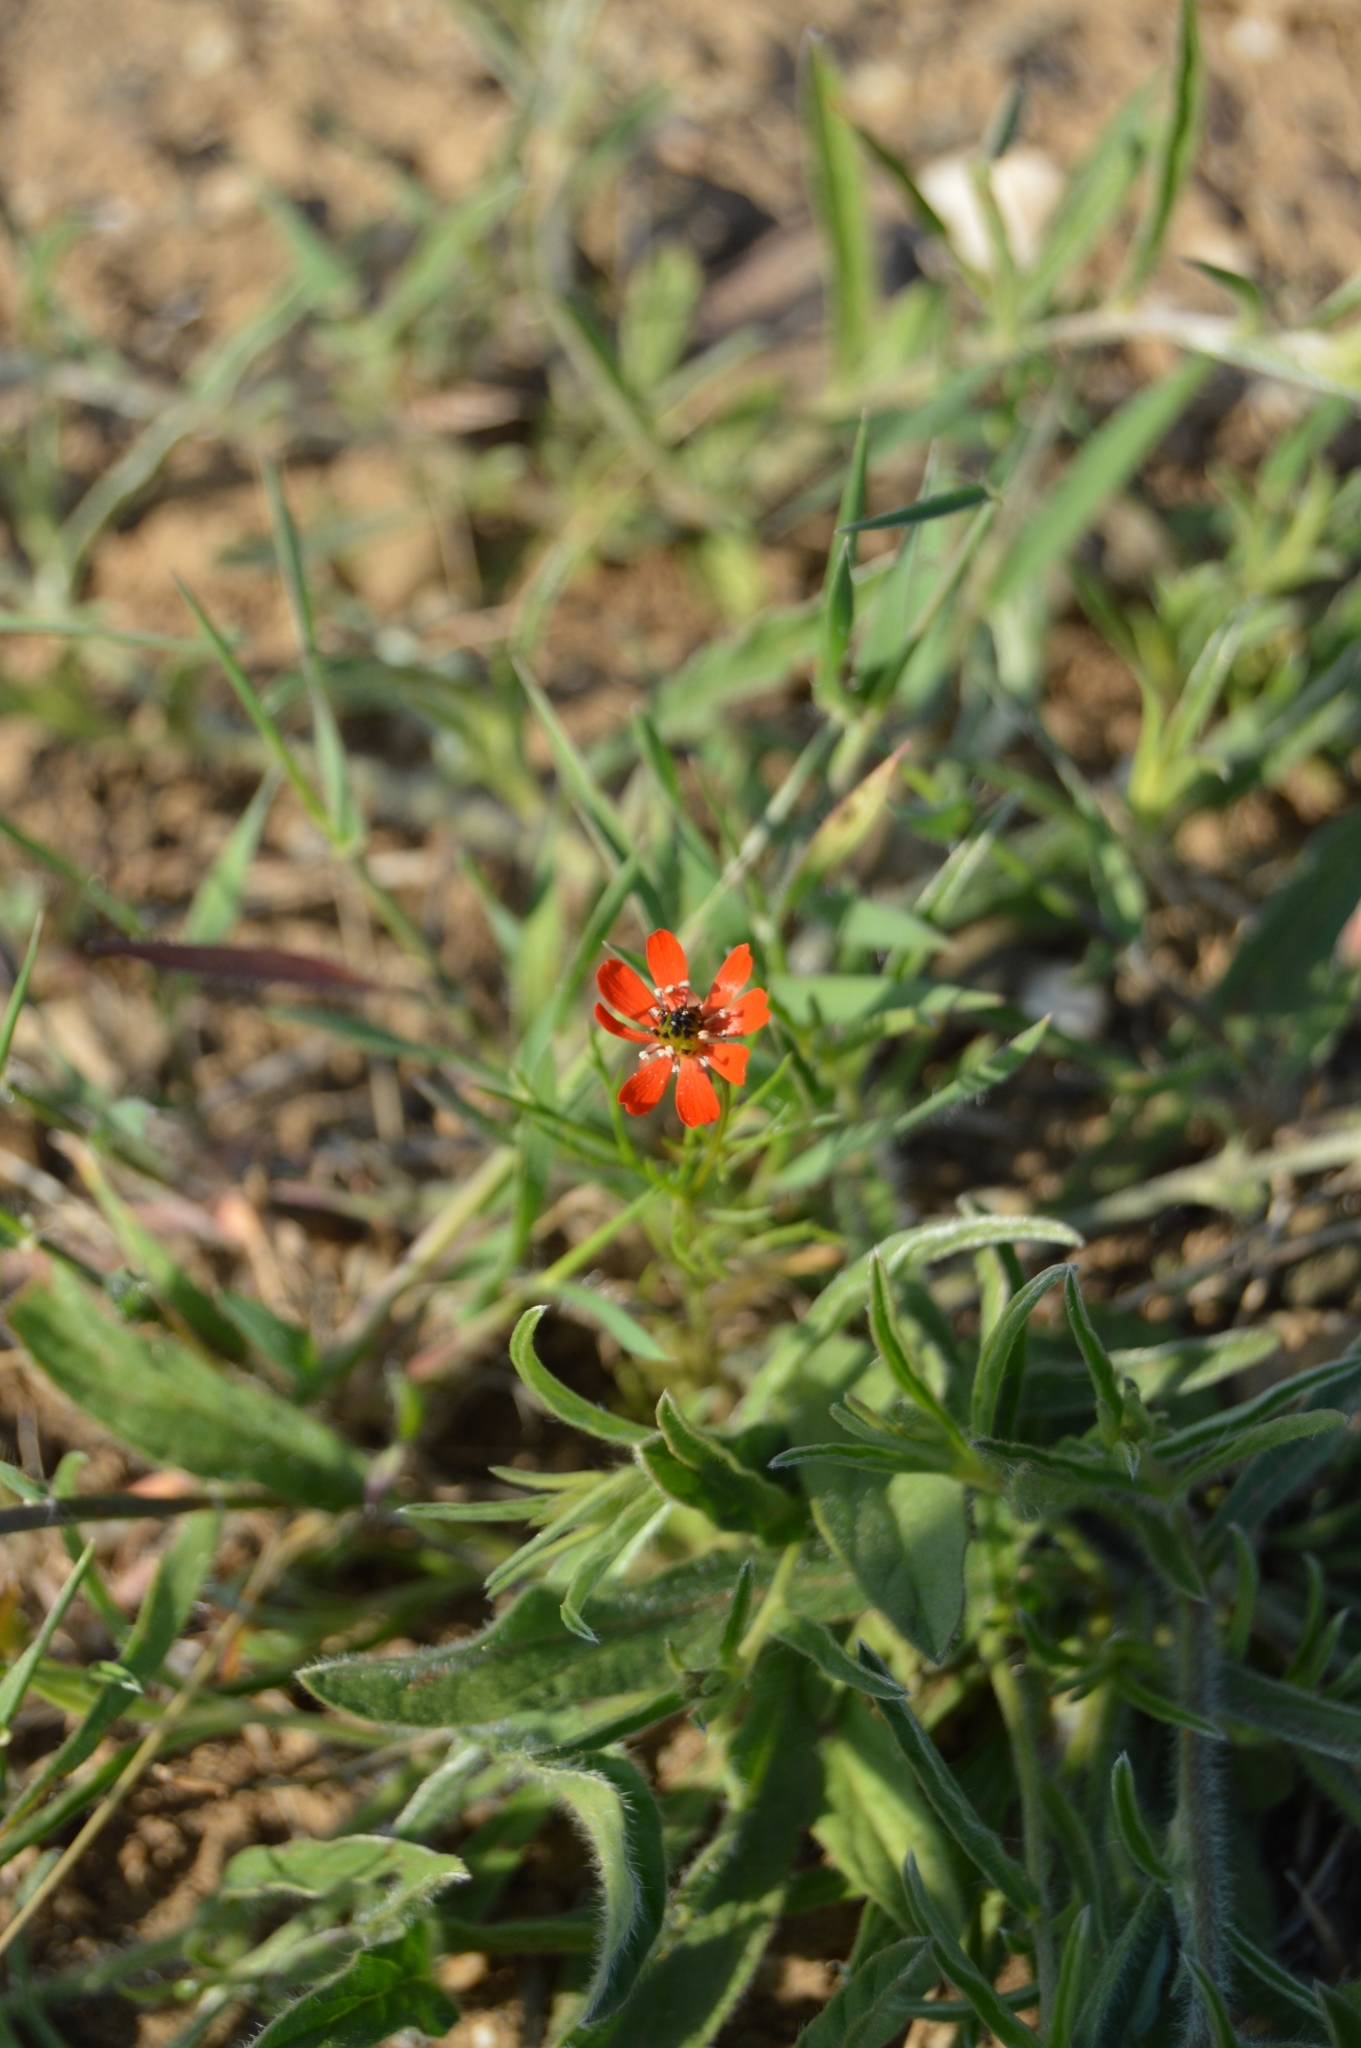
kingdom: Plantae
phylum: Tracheophyta
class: Magnoliopsida
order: Ranunculales
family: Ranunculaceae
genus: Adonis
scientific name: Adonis flammea
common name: Large pheasant's-eye
